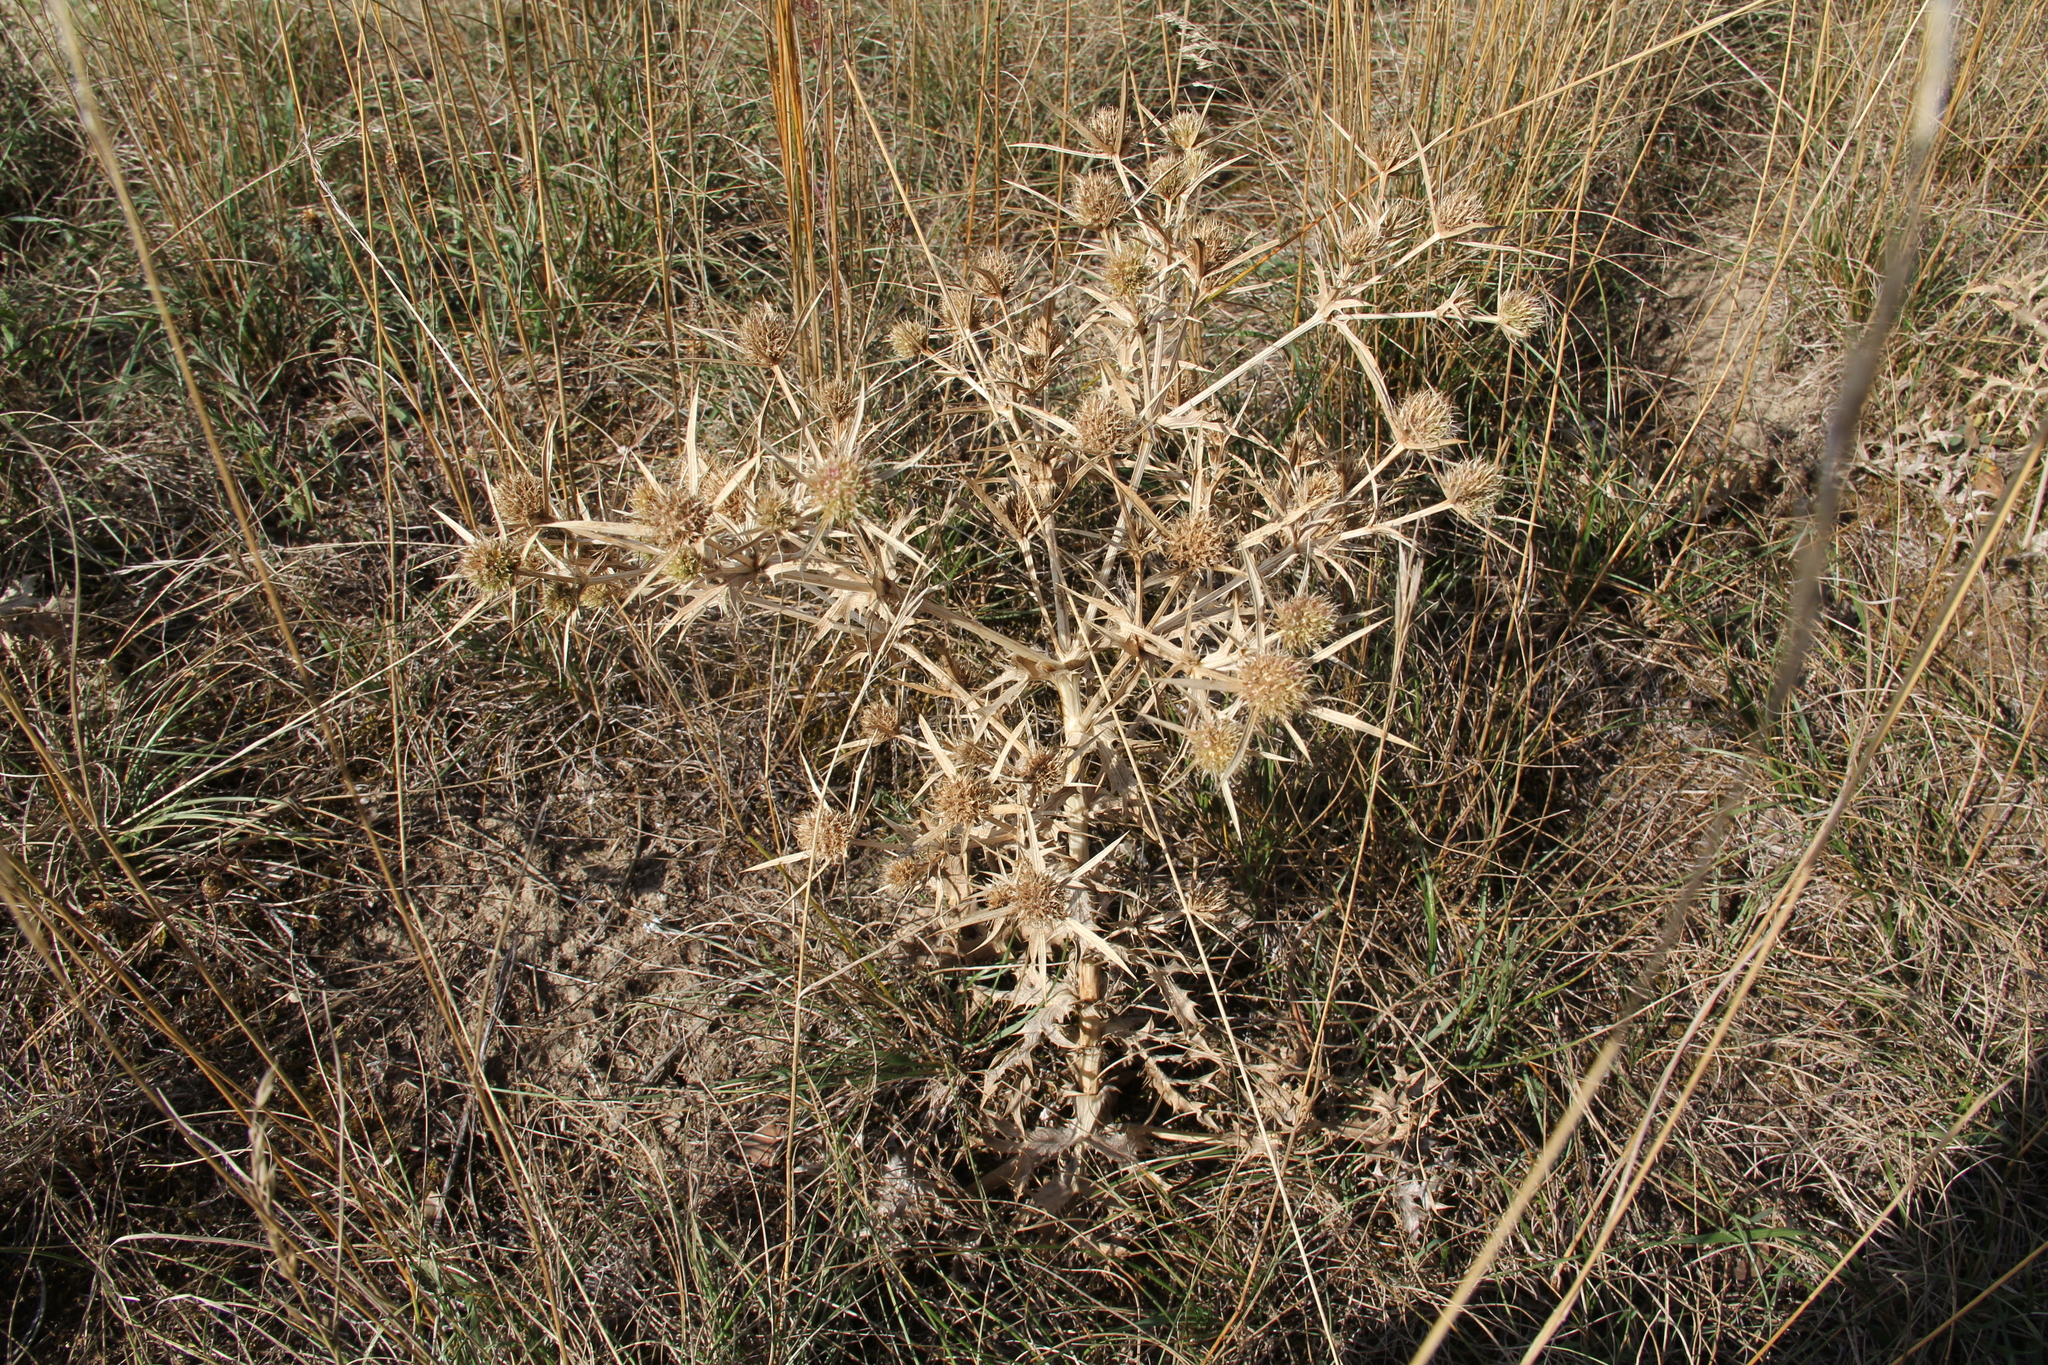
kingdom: Plantae
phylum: Tracheophyta
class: Magnoliopsida
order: Apiales
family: Apiaceae
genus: Eryngium
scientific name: Eryngium campestre
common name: Field eryngo
